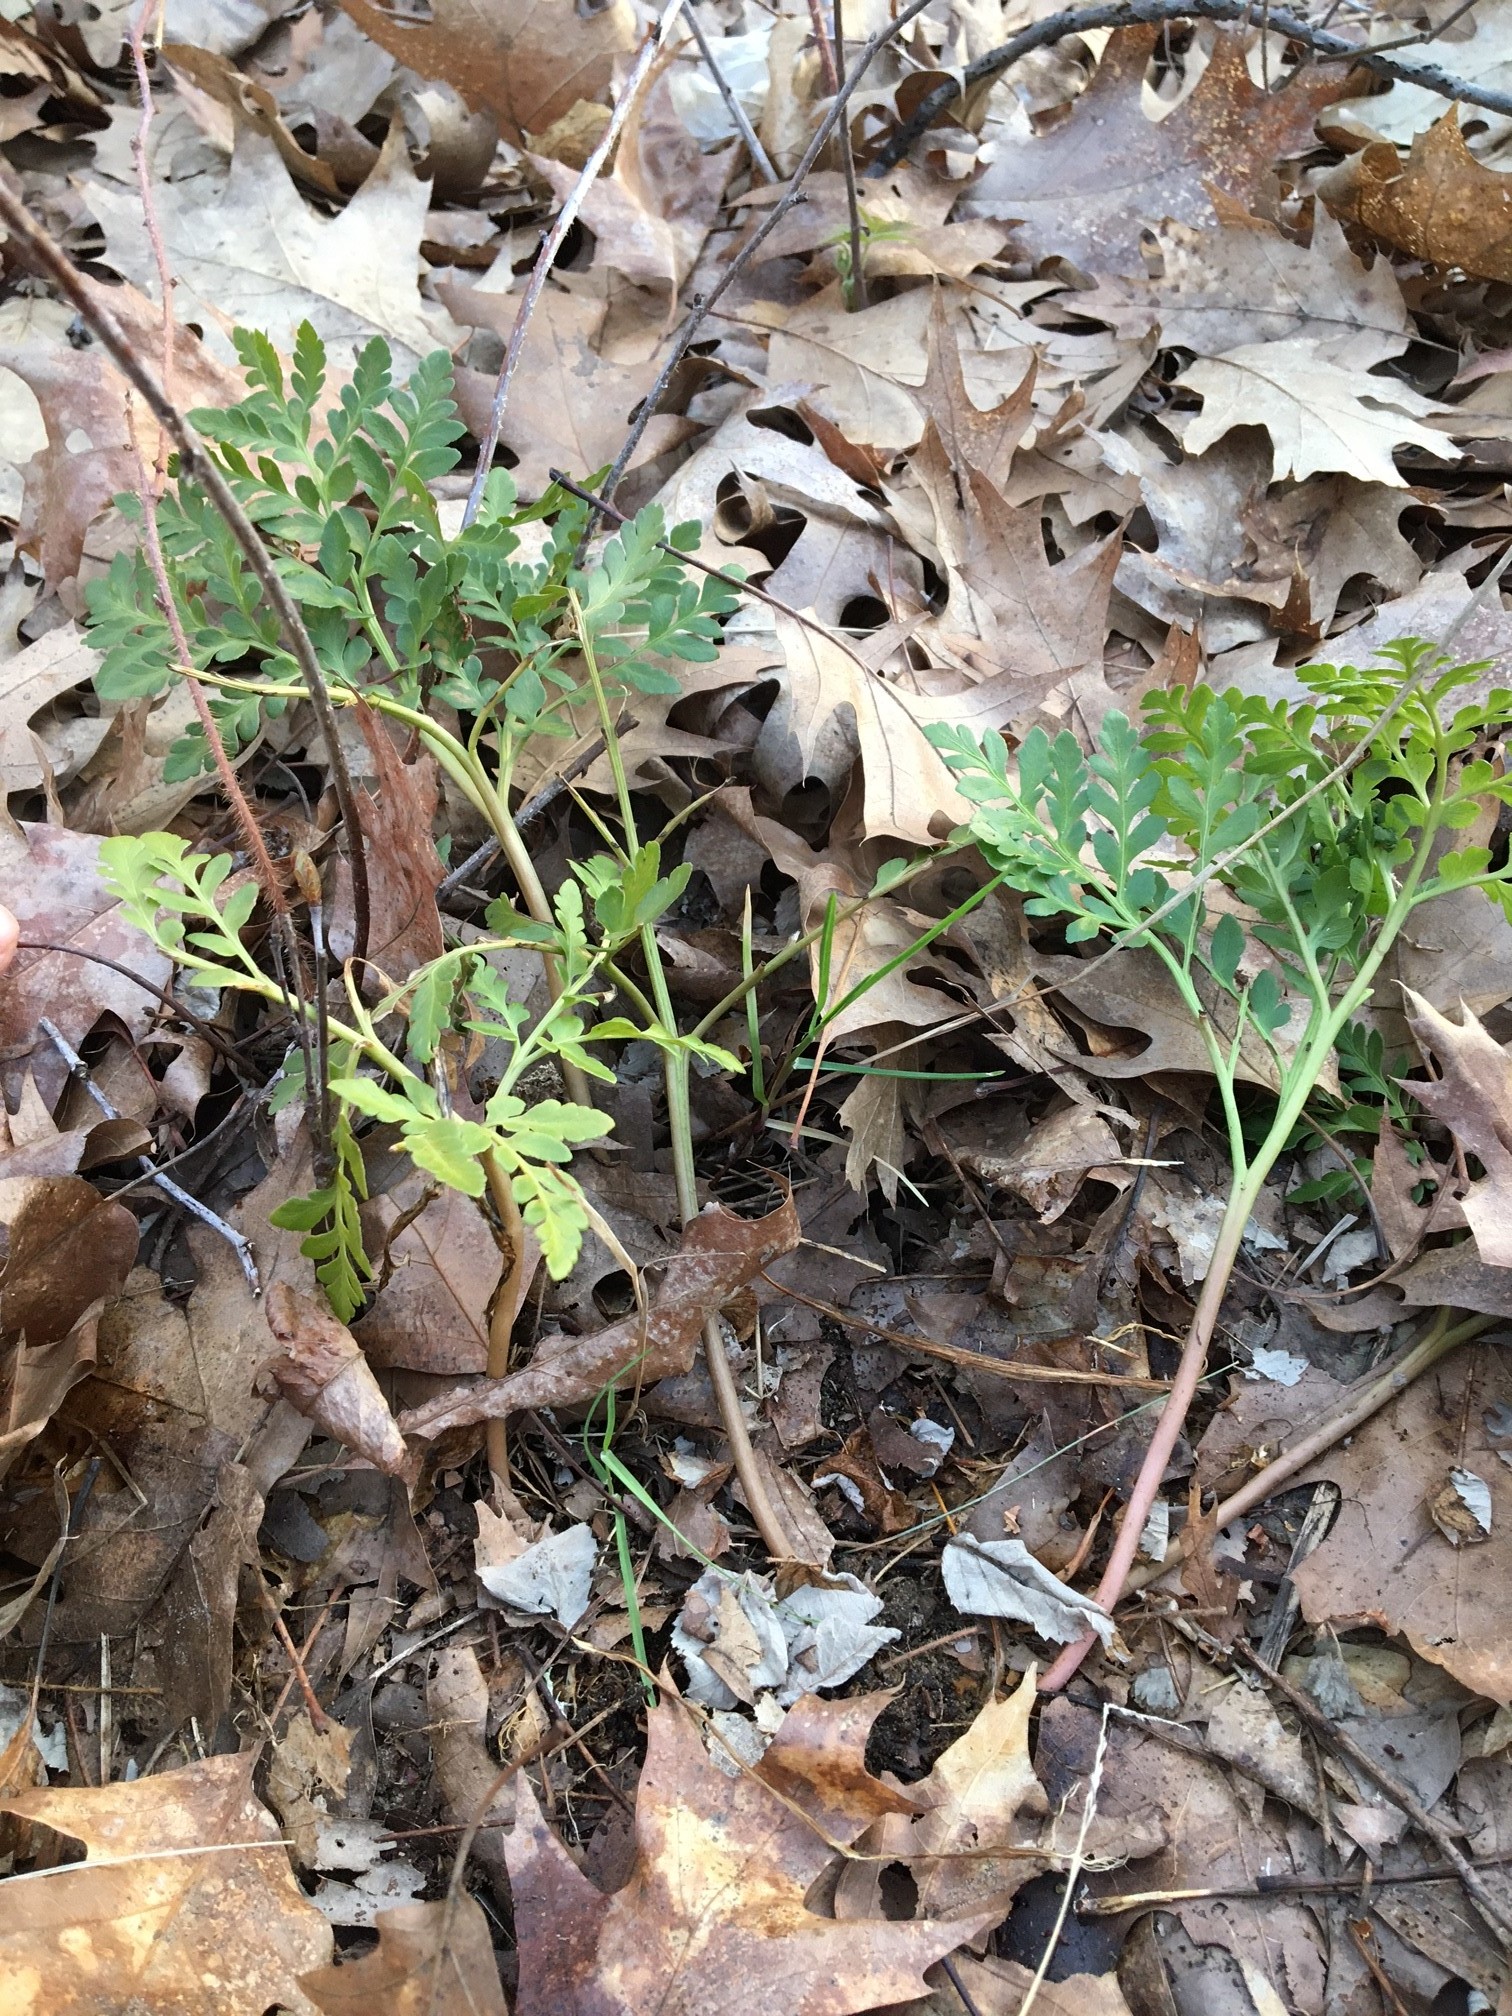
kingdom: Plantae
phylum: Tracheophyta
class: Polypodiopsida
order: Ophioglossales
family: Ophioglossaceae
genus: Sceptridium
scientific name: Sceptridium multifidum
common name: Leathery grape fern
